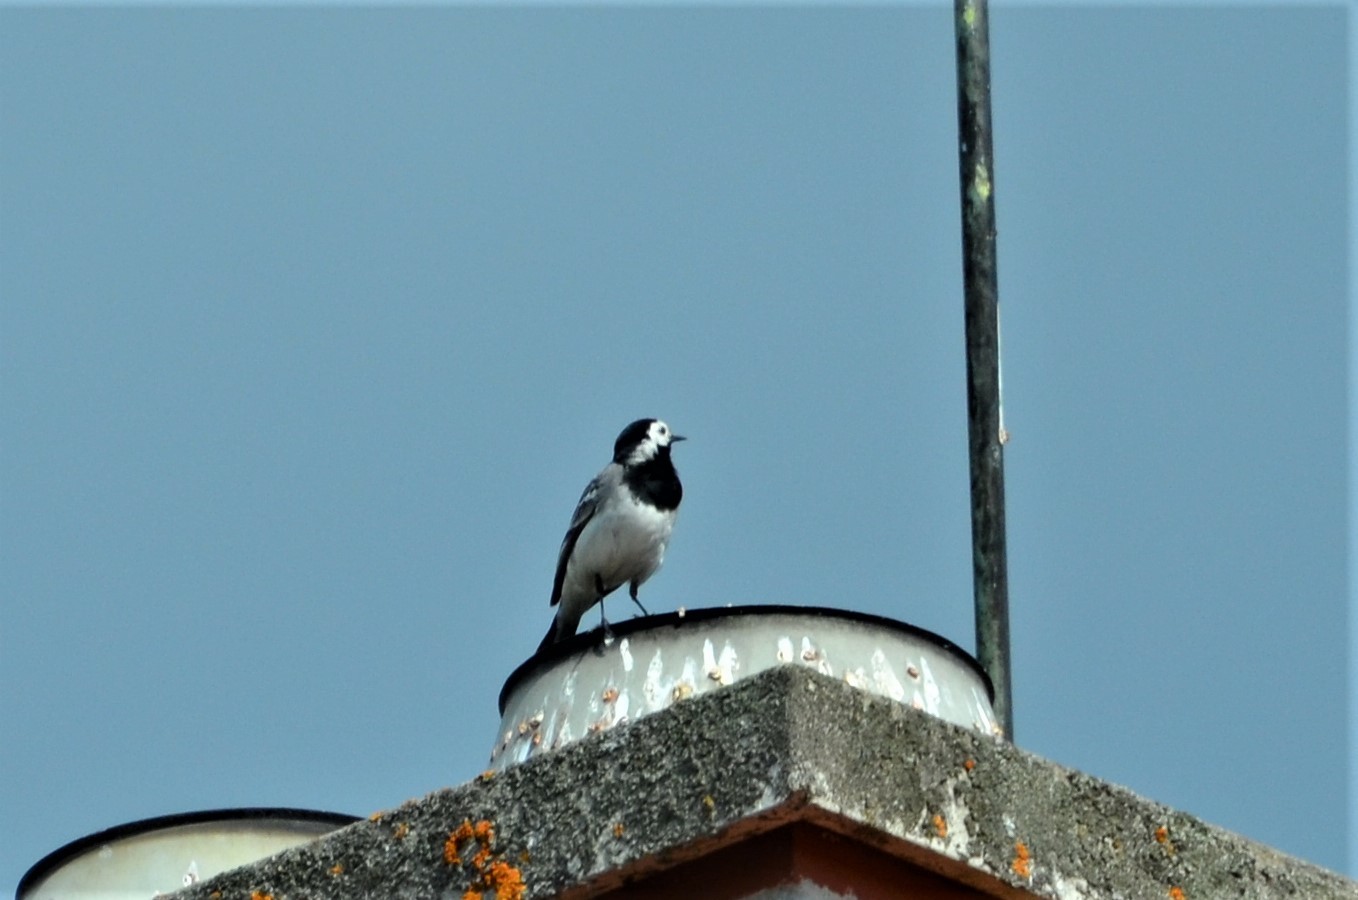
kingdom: Animalia
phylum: Chordata
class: Aves
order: Passeriformes
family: Motacillidae
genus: Motacilla
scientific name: Motacilla alba
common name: White wagtail
